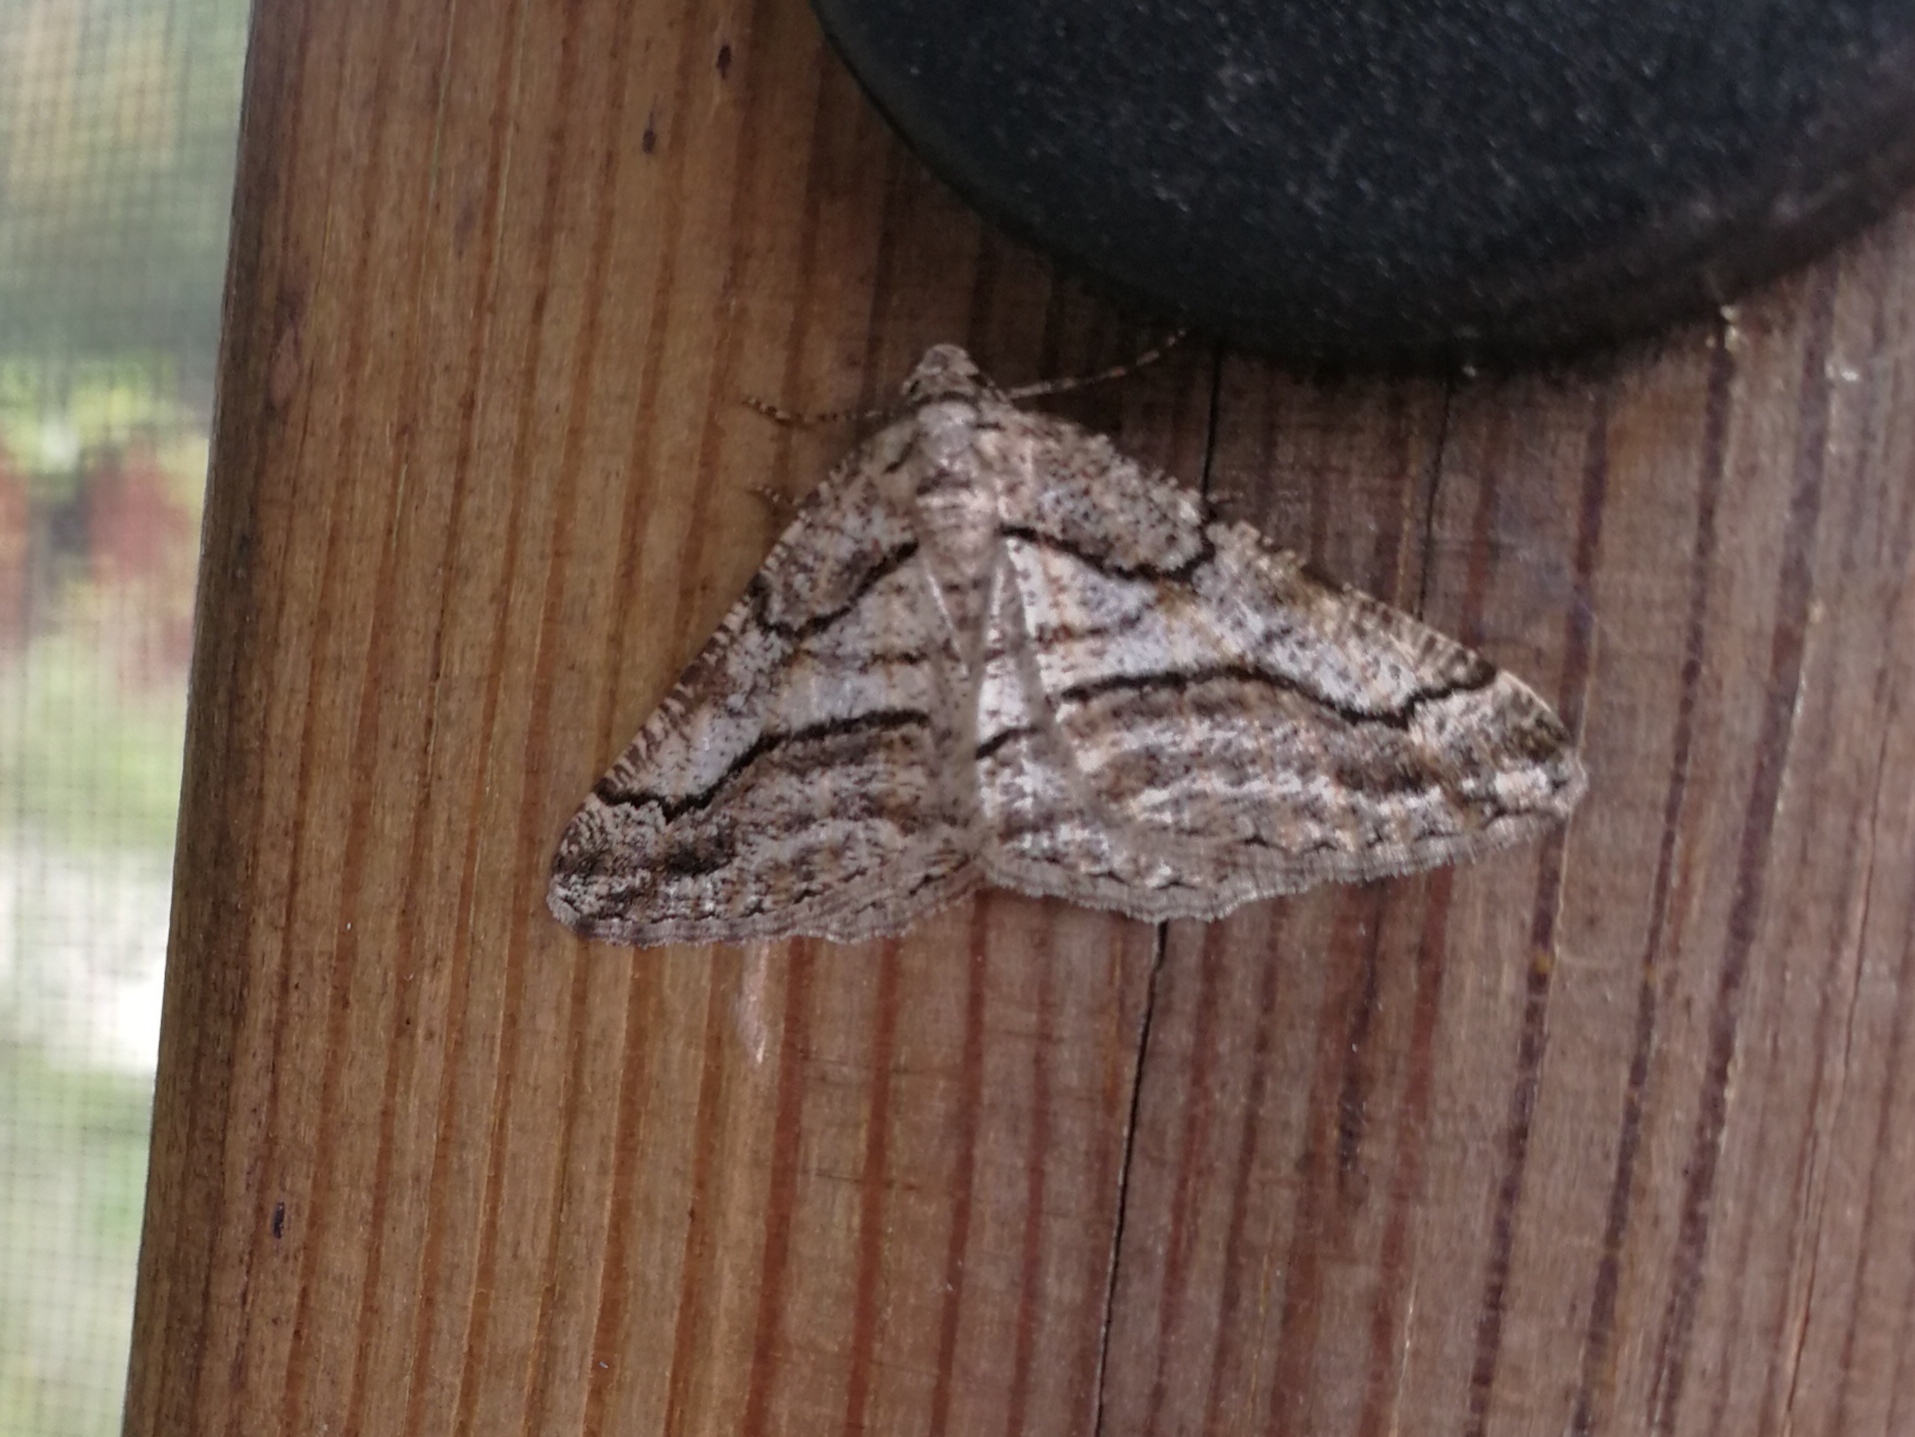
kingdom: Animalia
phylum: Arthropoda
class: Insecta
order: Lepidoptera
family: Geometridae
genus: Calamodes
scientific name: Calamodes occitanaria
